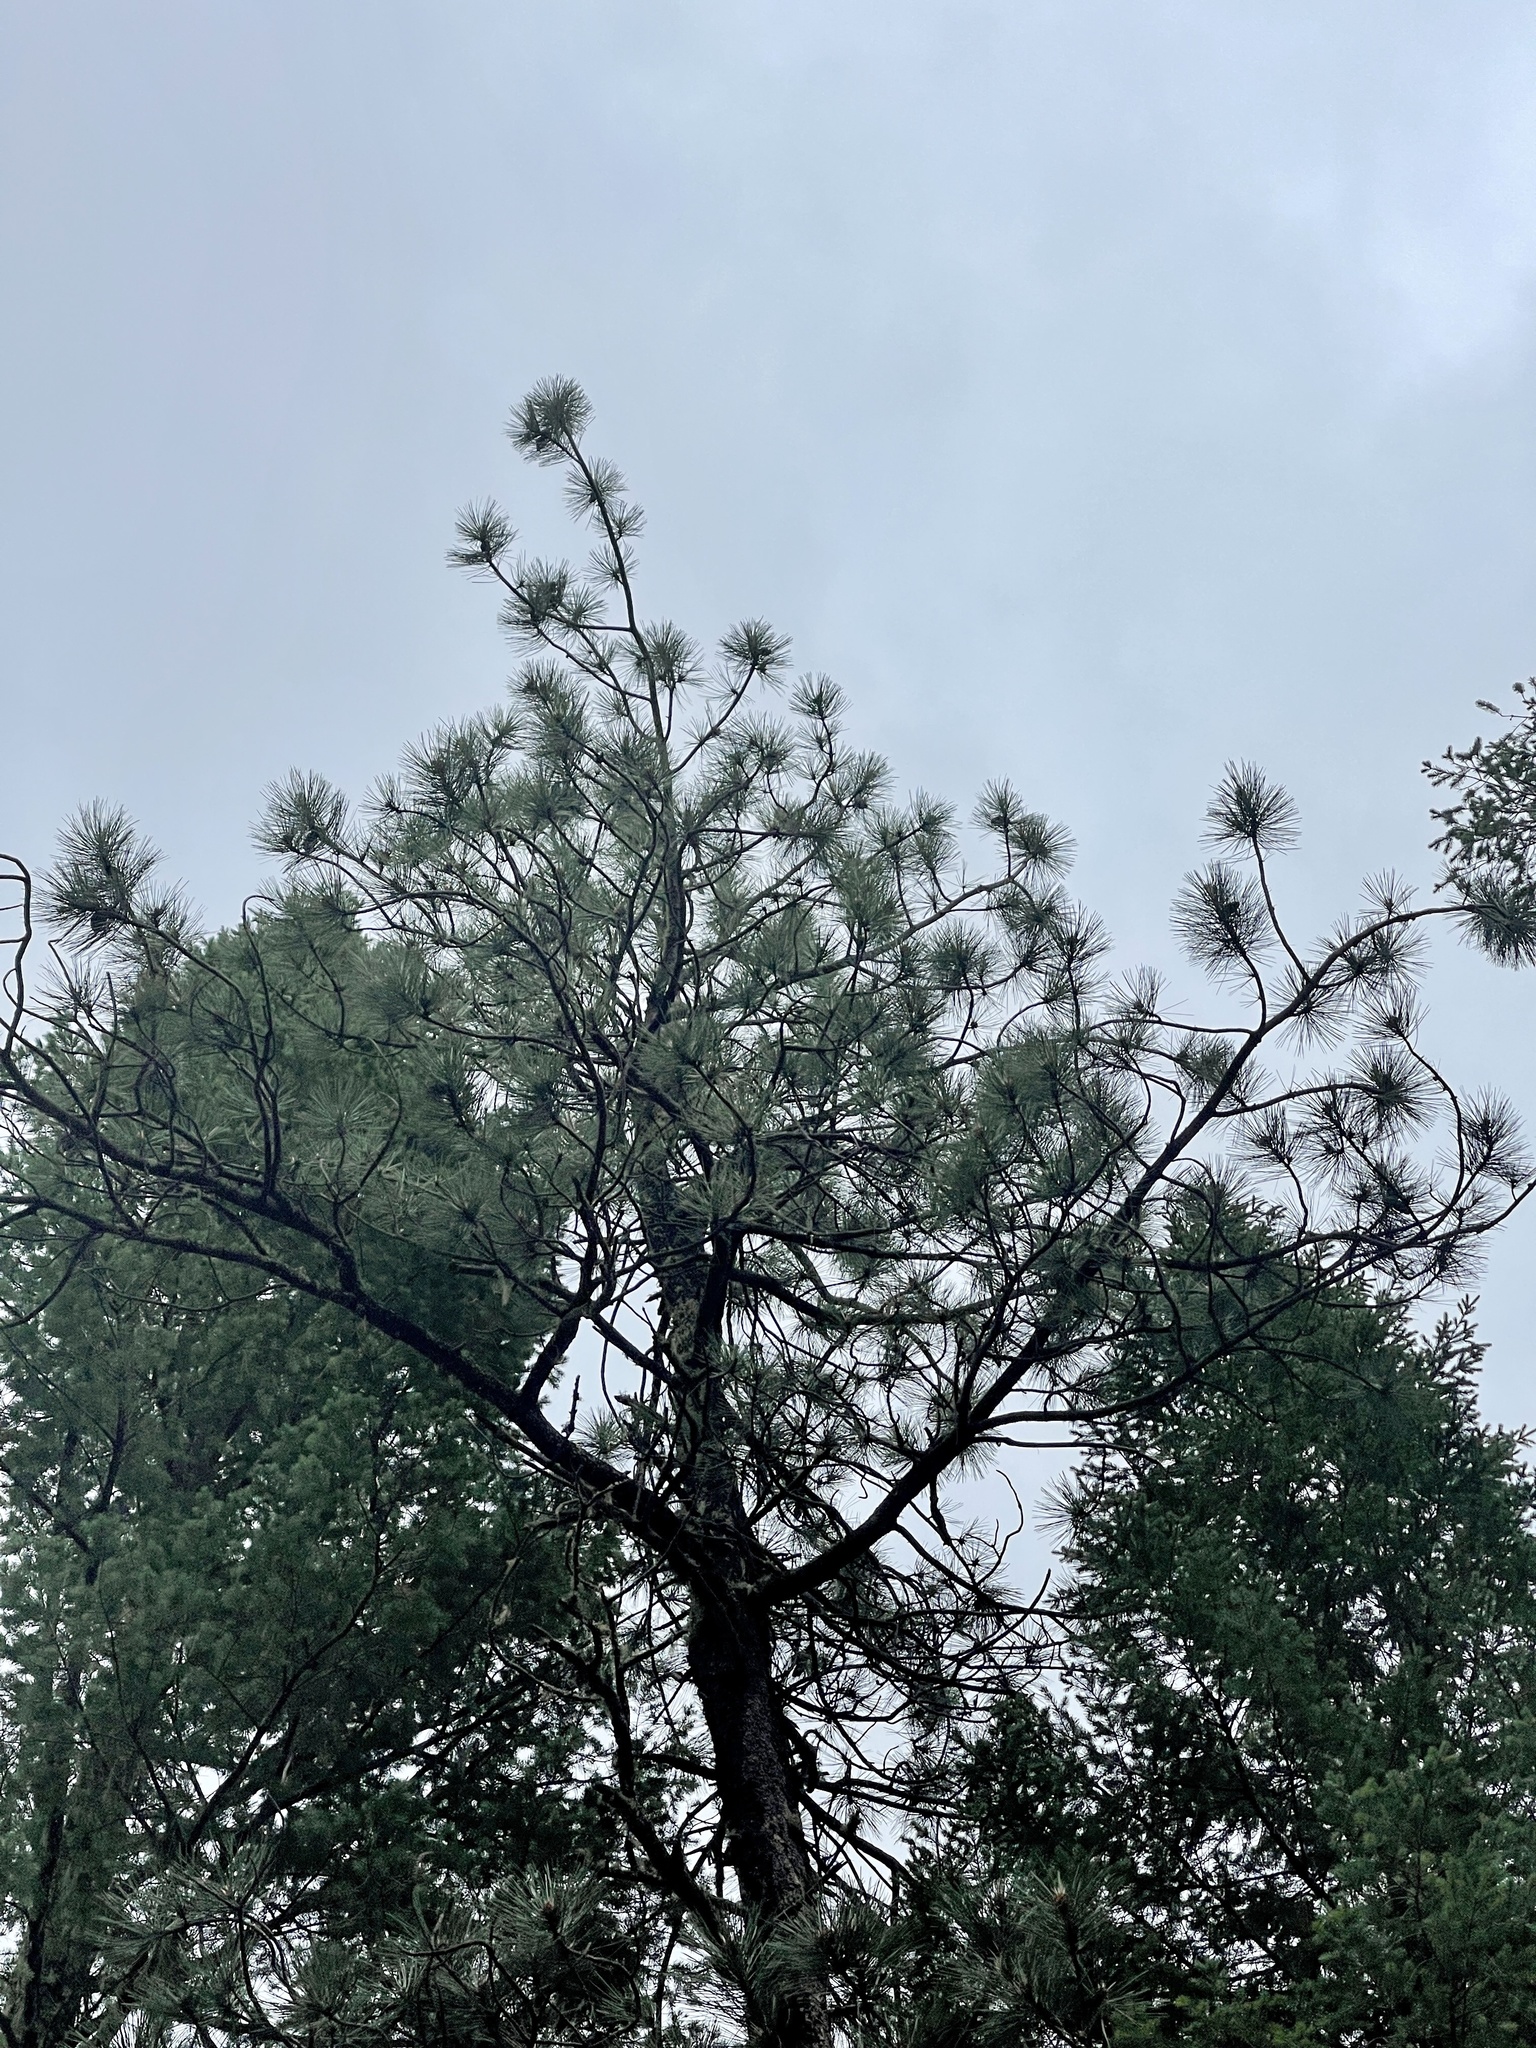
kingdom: Plantae
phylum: Tracheophyta
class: Pinopsida
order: Pinales
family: Pinaceae
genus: Pinus
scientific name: Pinus ponderosa
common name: Western yellow-pine
